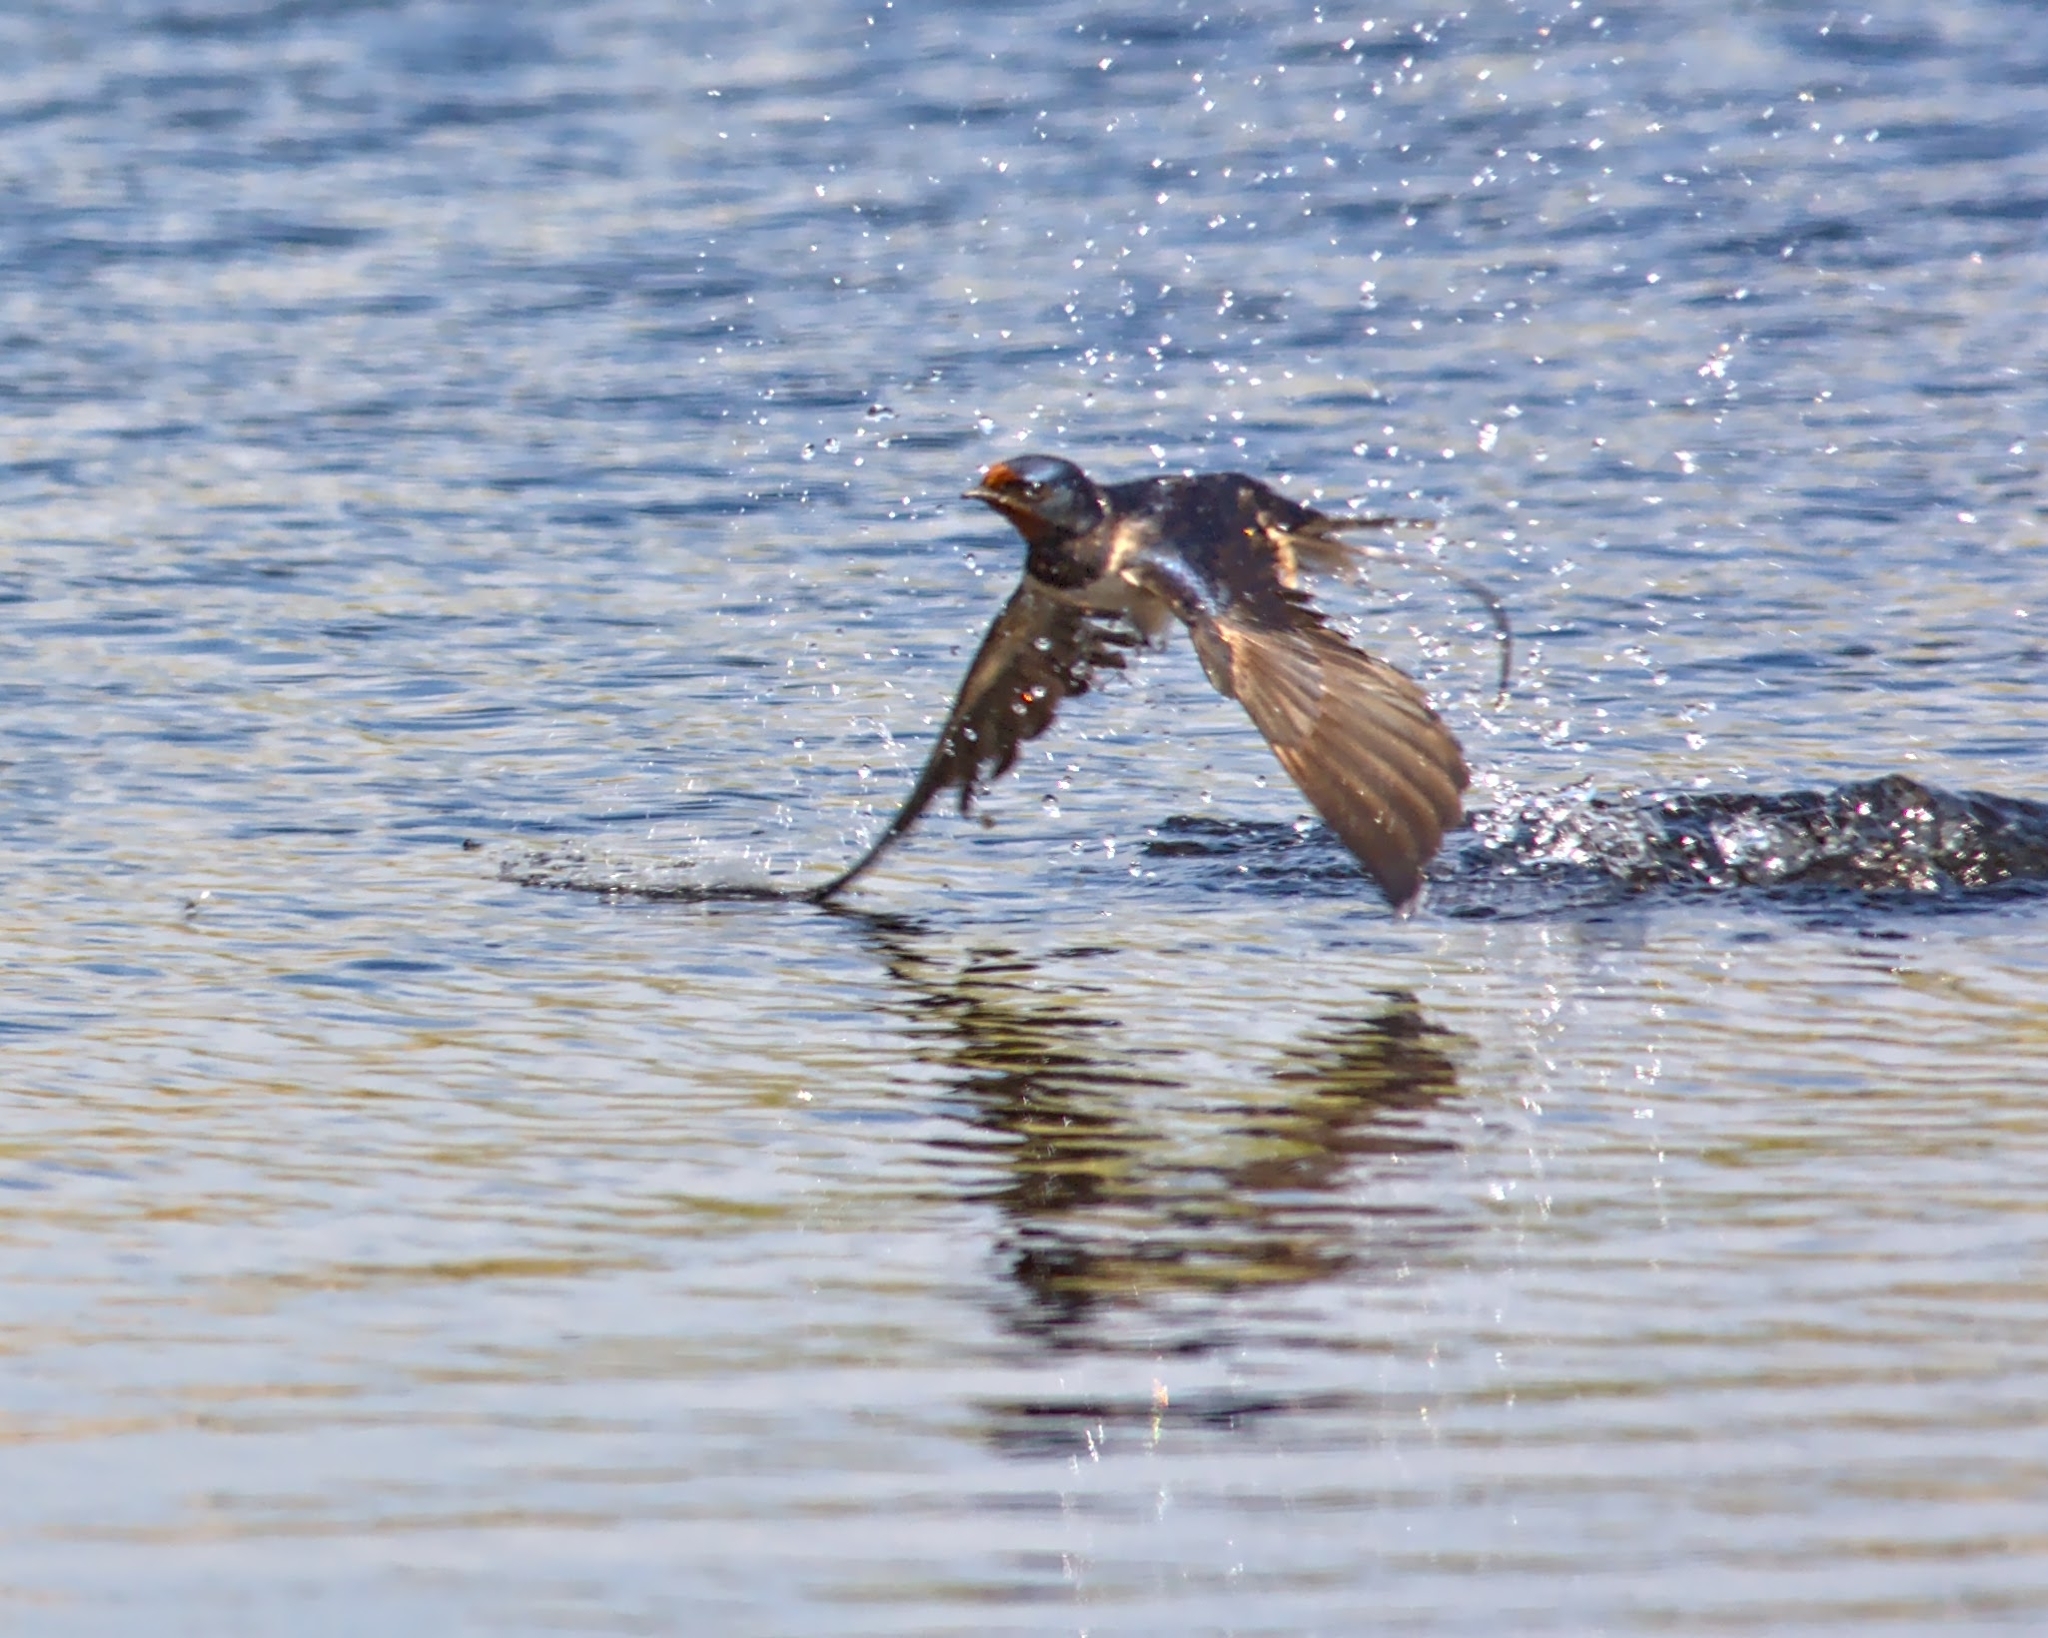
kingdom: Animalia
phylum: Chordata
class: Aves
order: Passeriformes
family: Hirundinidae
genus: Hirundo
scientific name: Hirundo rustica
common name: Barn swallow
